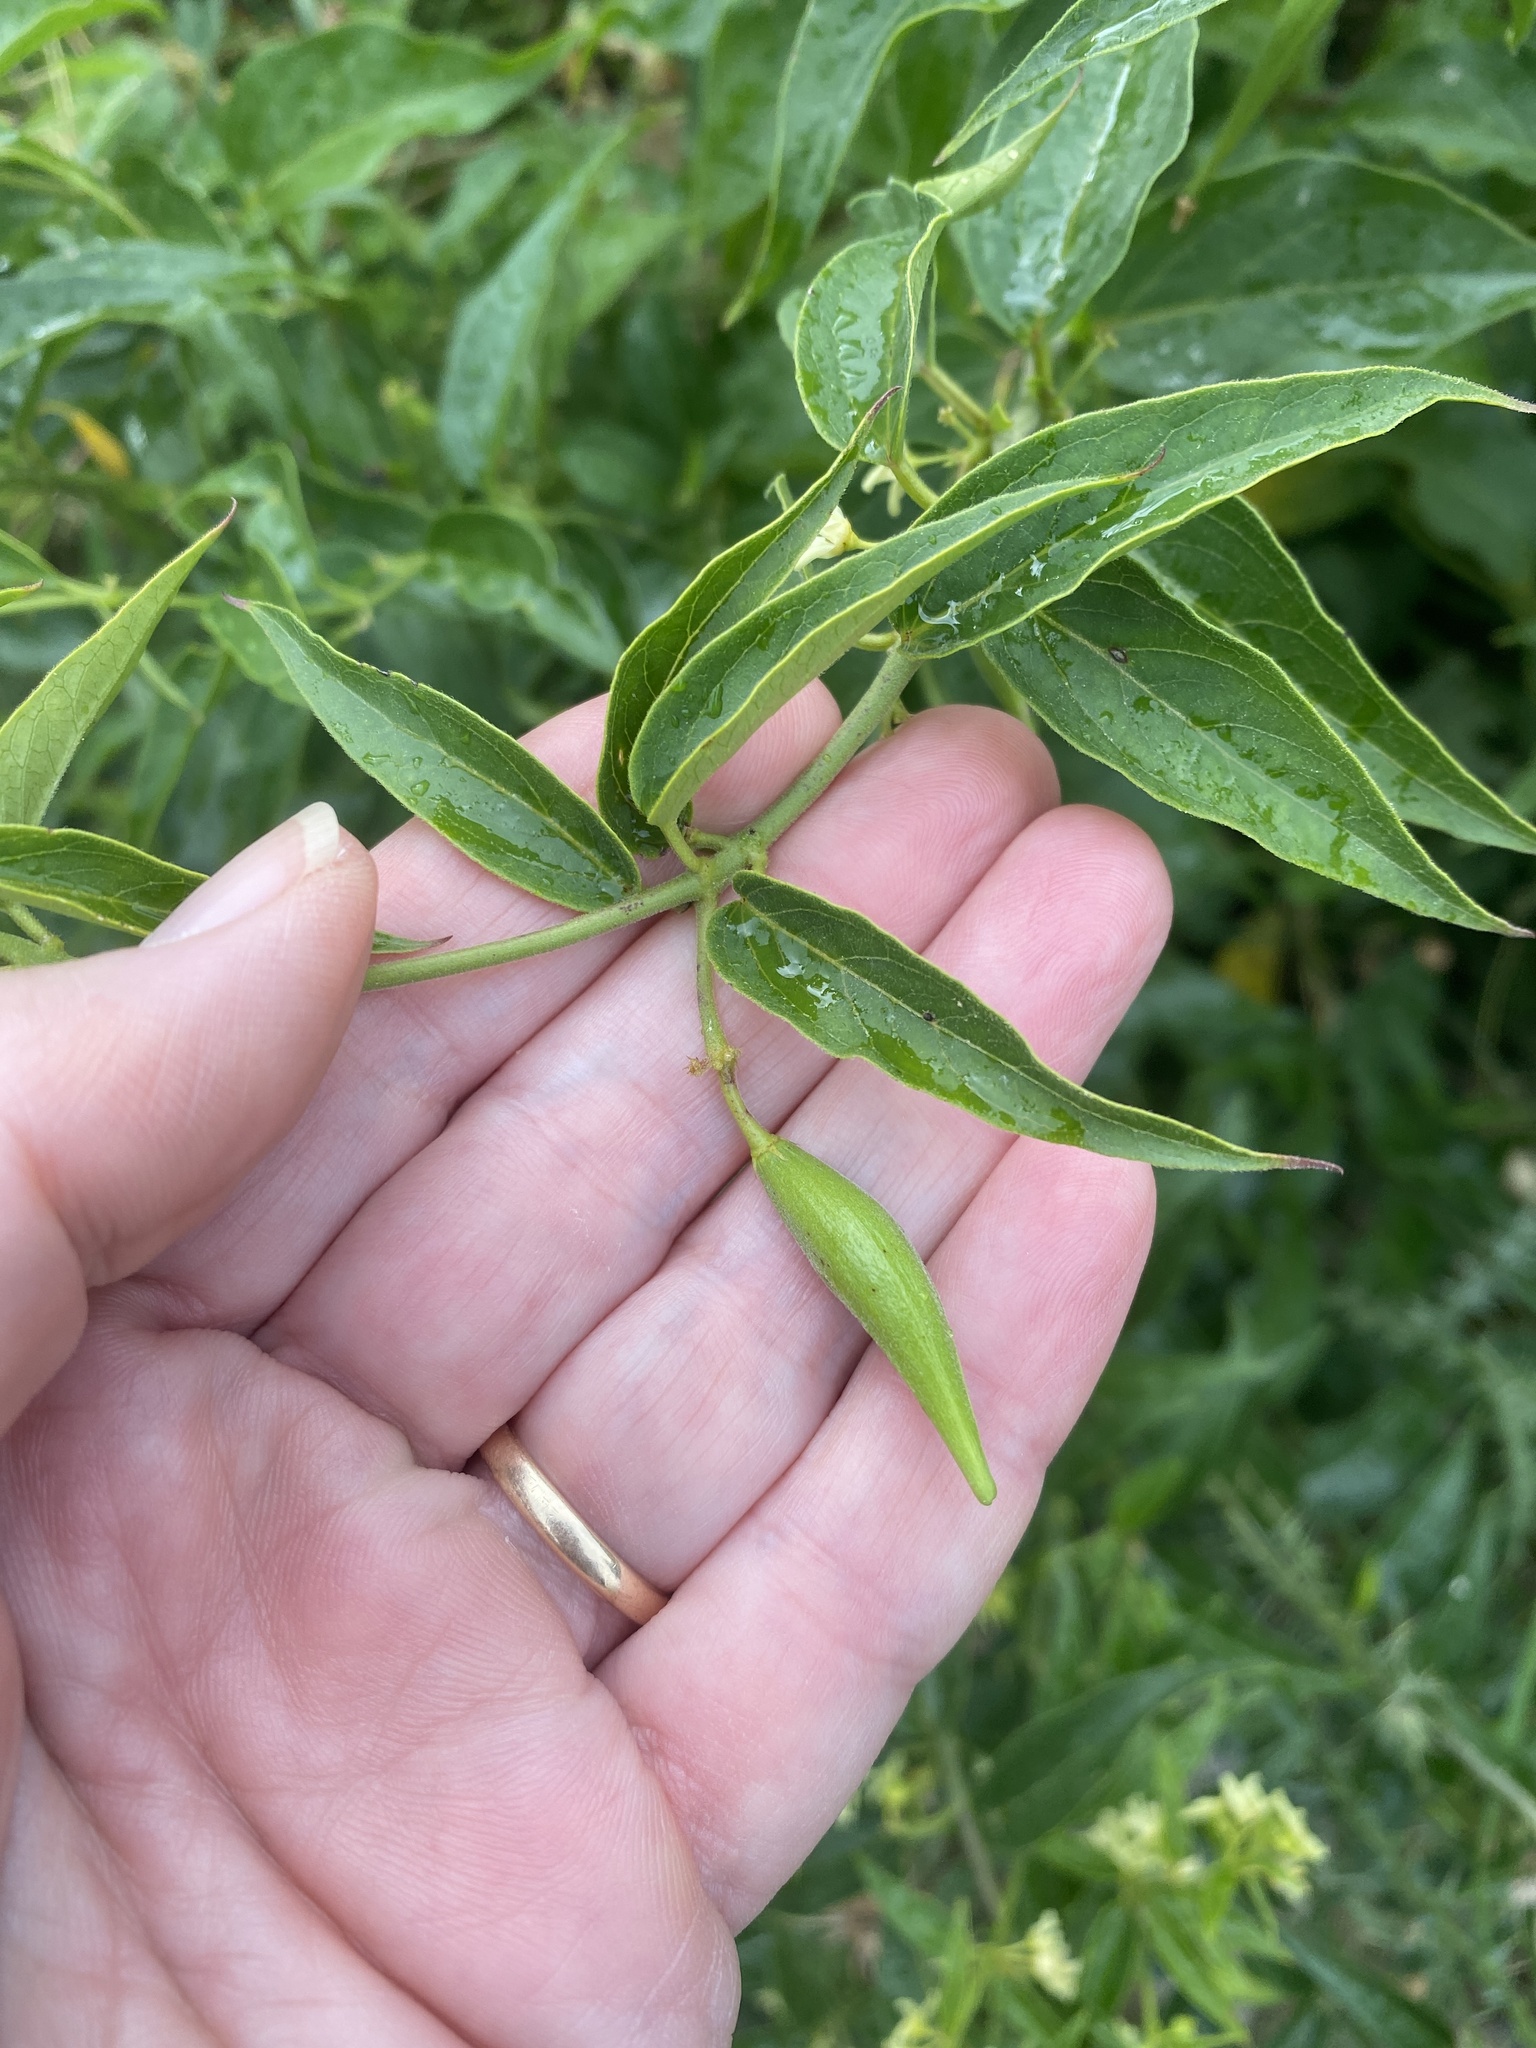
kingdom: Plantae
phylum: Tracheophyta
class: Magnoliopsida
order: Gentianales
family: Apocynaceae
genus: Vincetoxicum
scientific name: Vincetoxicum hirundinaria
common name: White swallowwort
